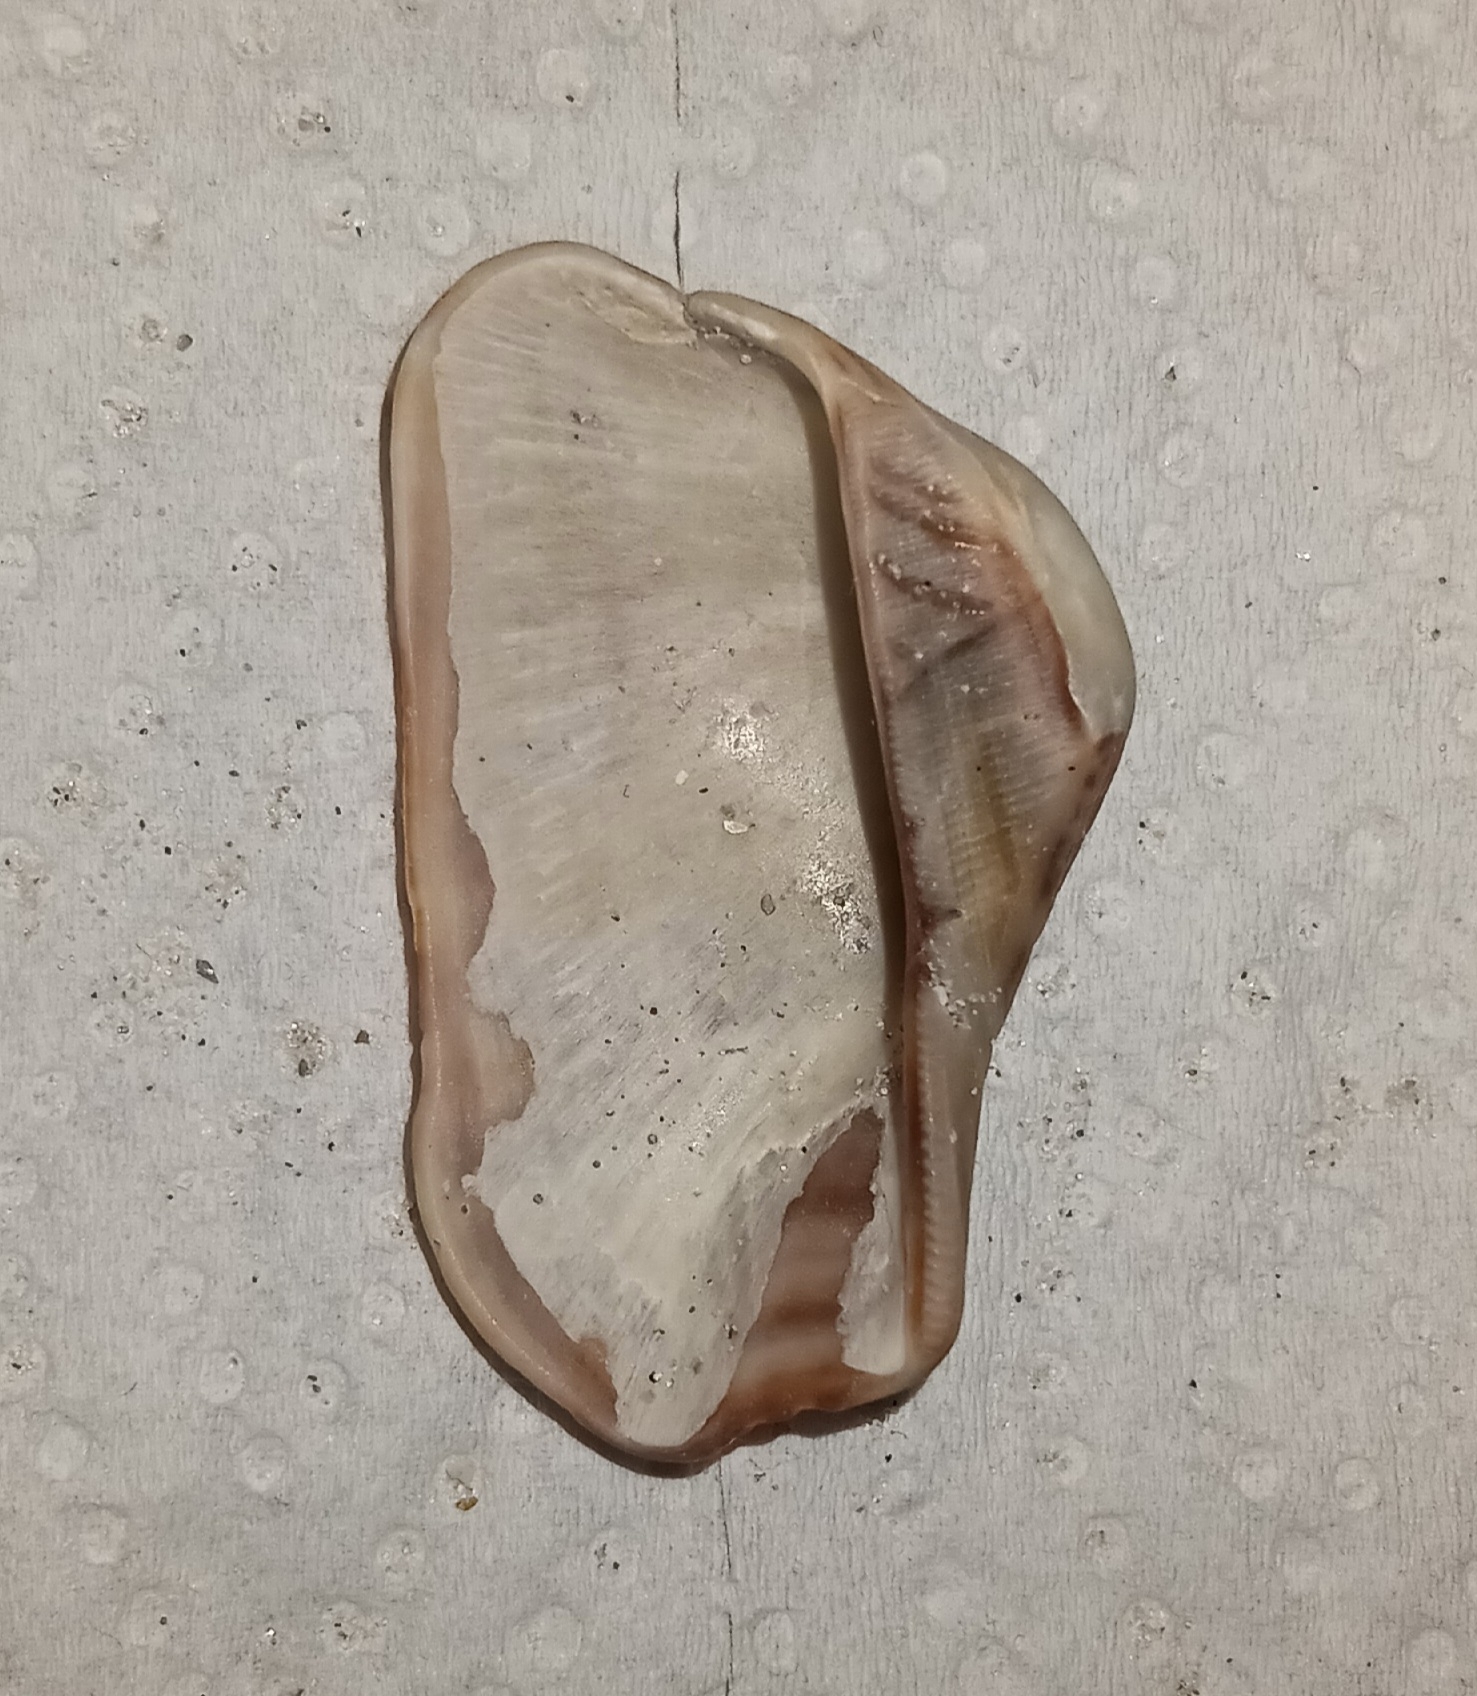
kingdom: Animalia
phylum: Mollusca
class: Bivalvia
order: Arcida
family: Arcidae
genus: Lamarcka
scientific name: Lamarcka imbricata
